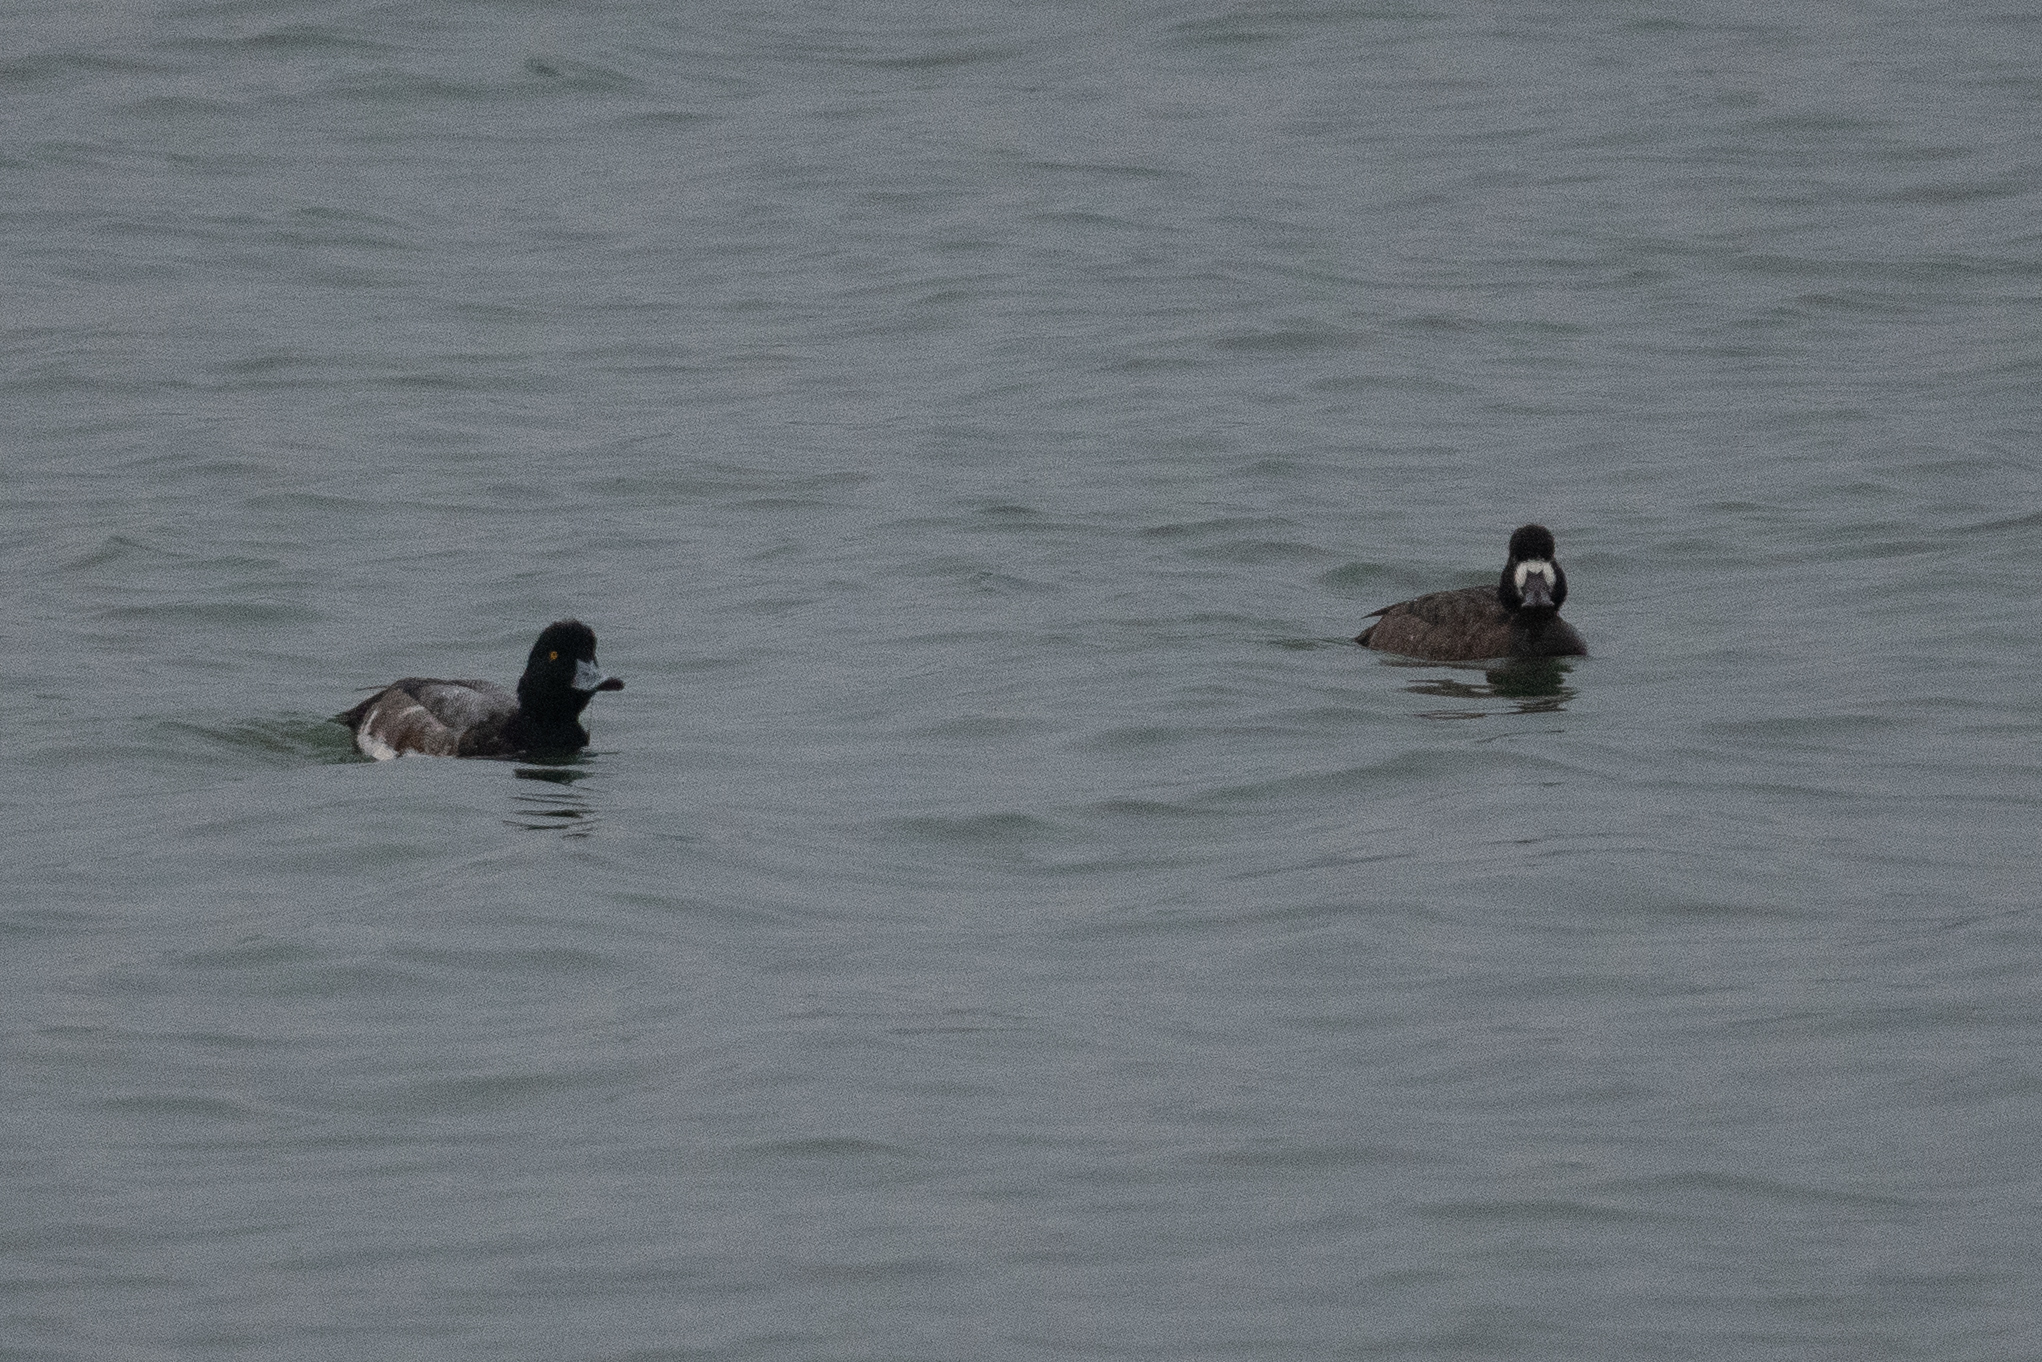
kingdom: Animalia
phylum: Chordata
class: Aves
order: Anseriformes
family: Anatidae
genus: Aythya
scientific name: Aythya marila
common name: Greater scaup
